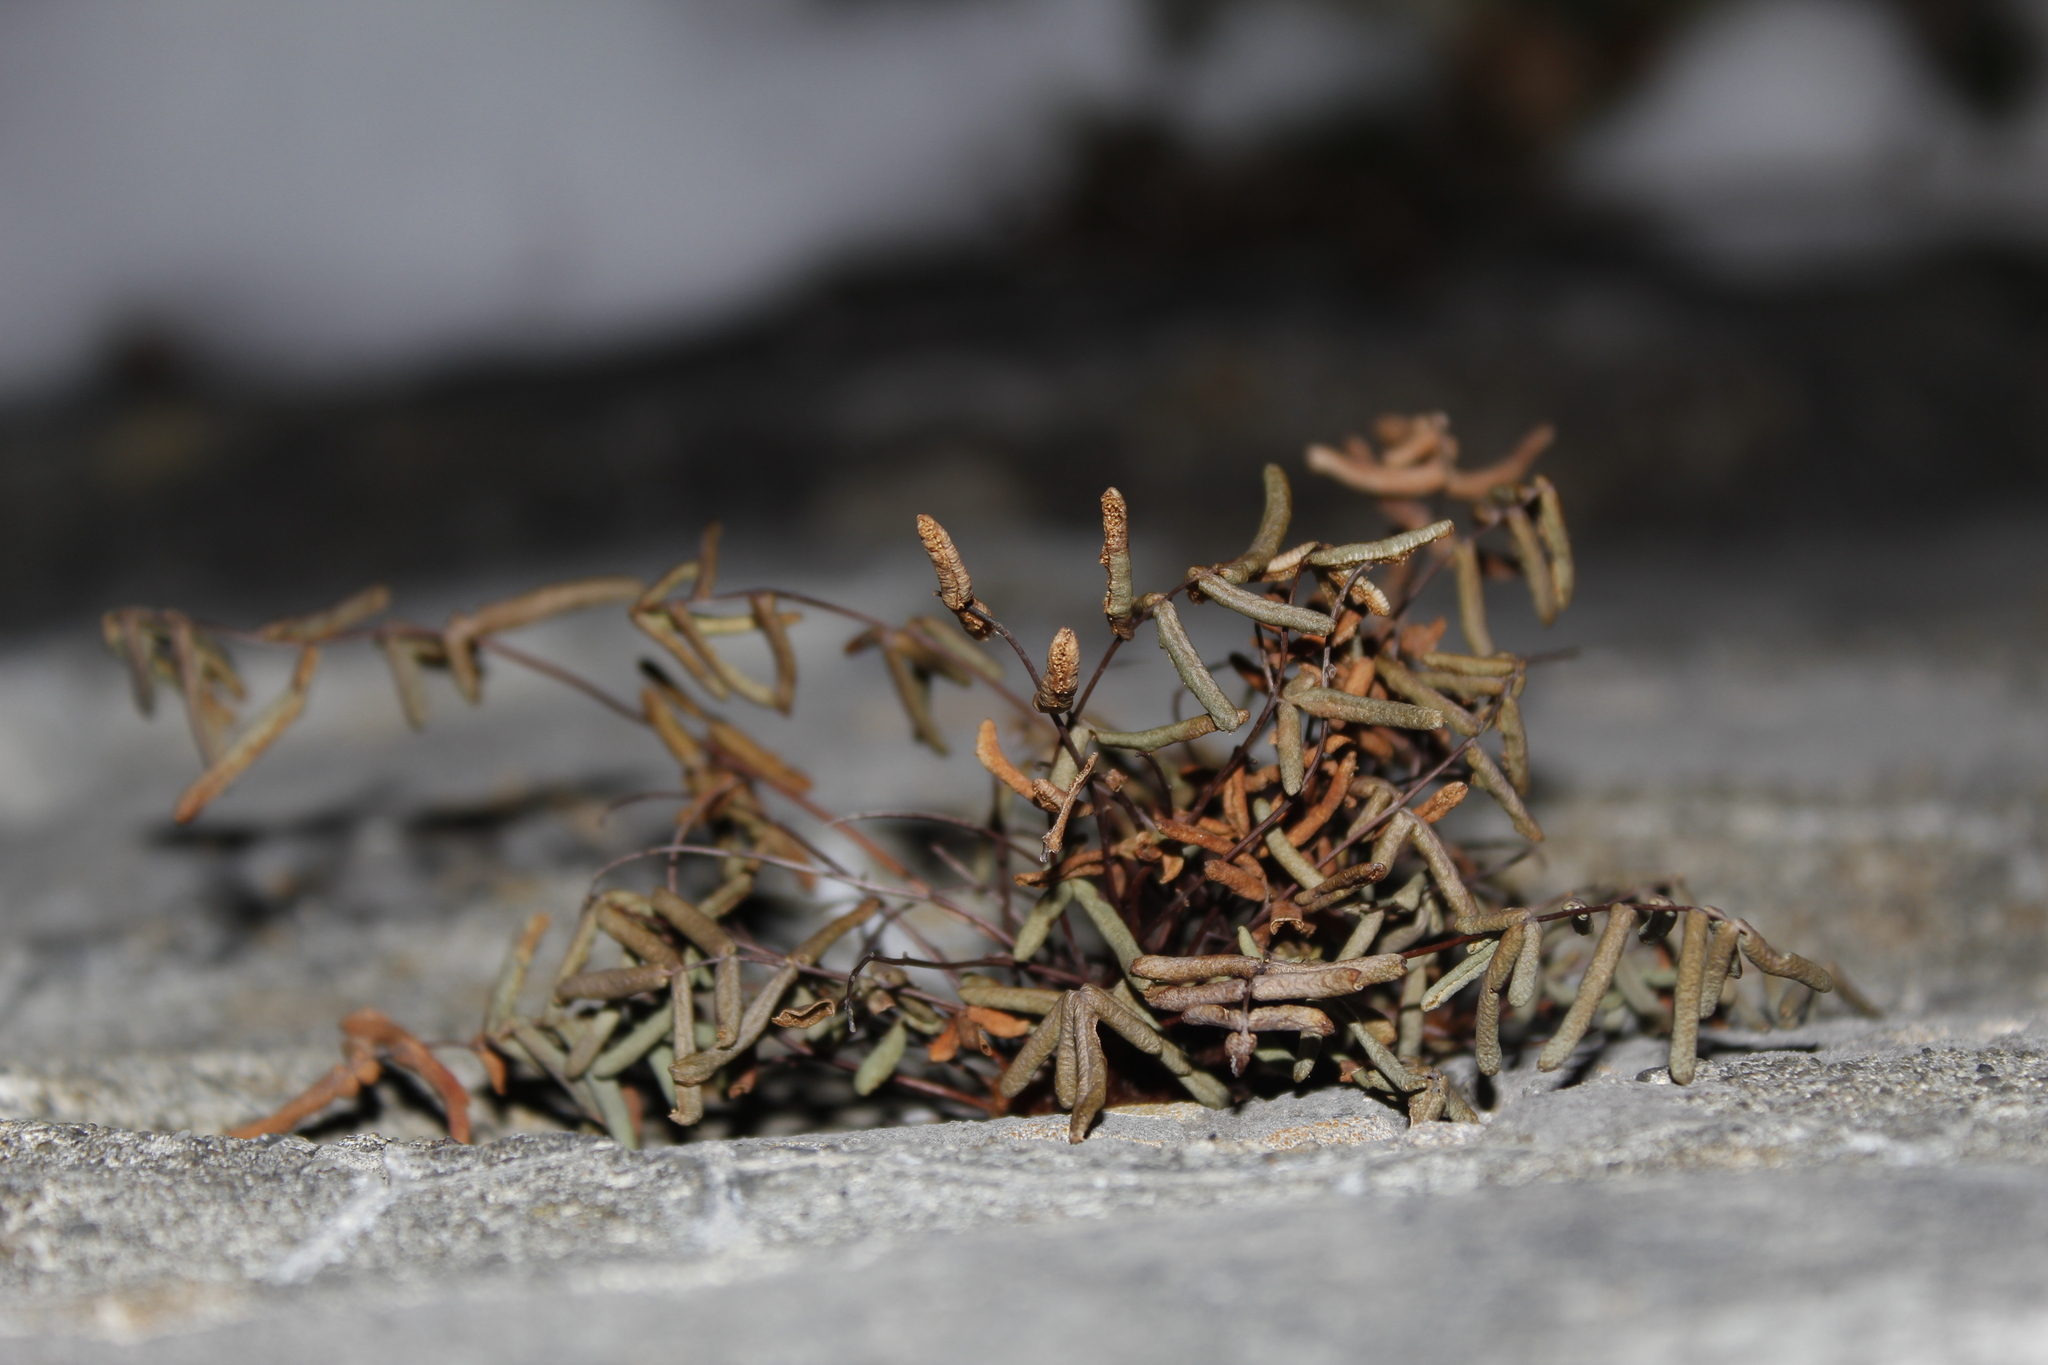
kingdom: Plantae
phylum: Tracheophyta
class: Polypodiopsida
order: Polypodiales
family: Pteridaceae
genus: Pellaea
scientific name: Pellaea glabella
